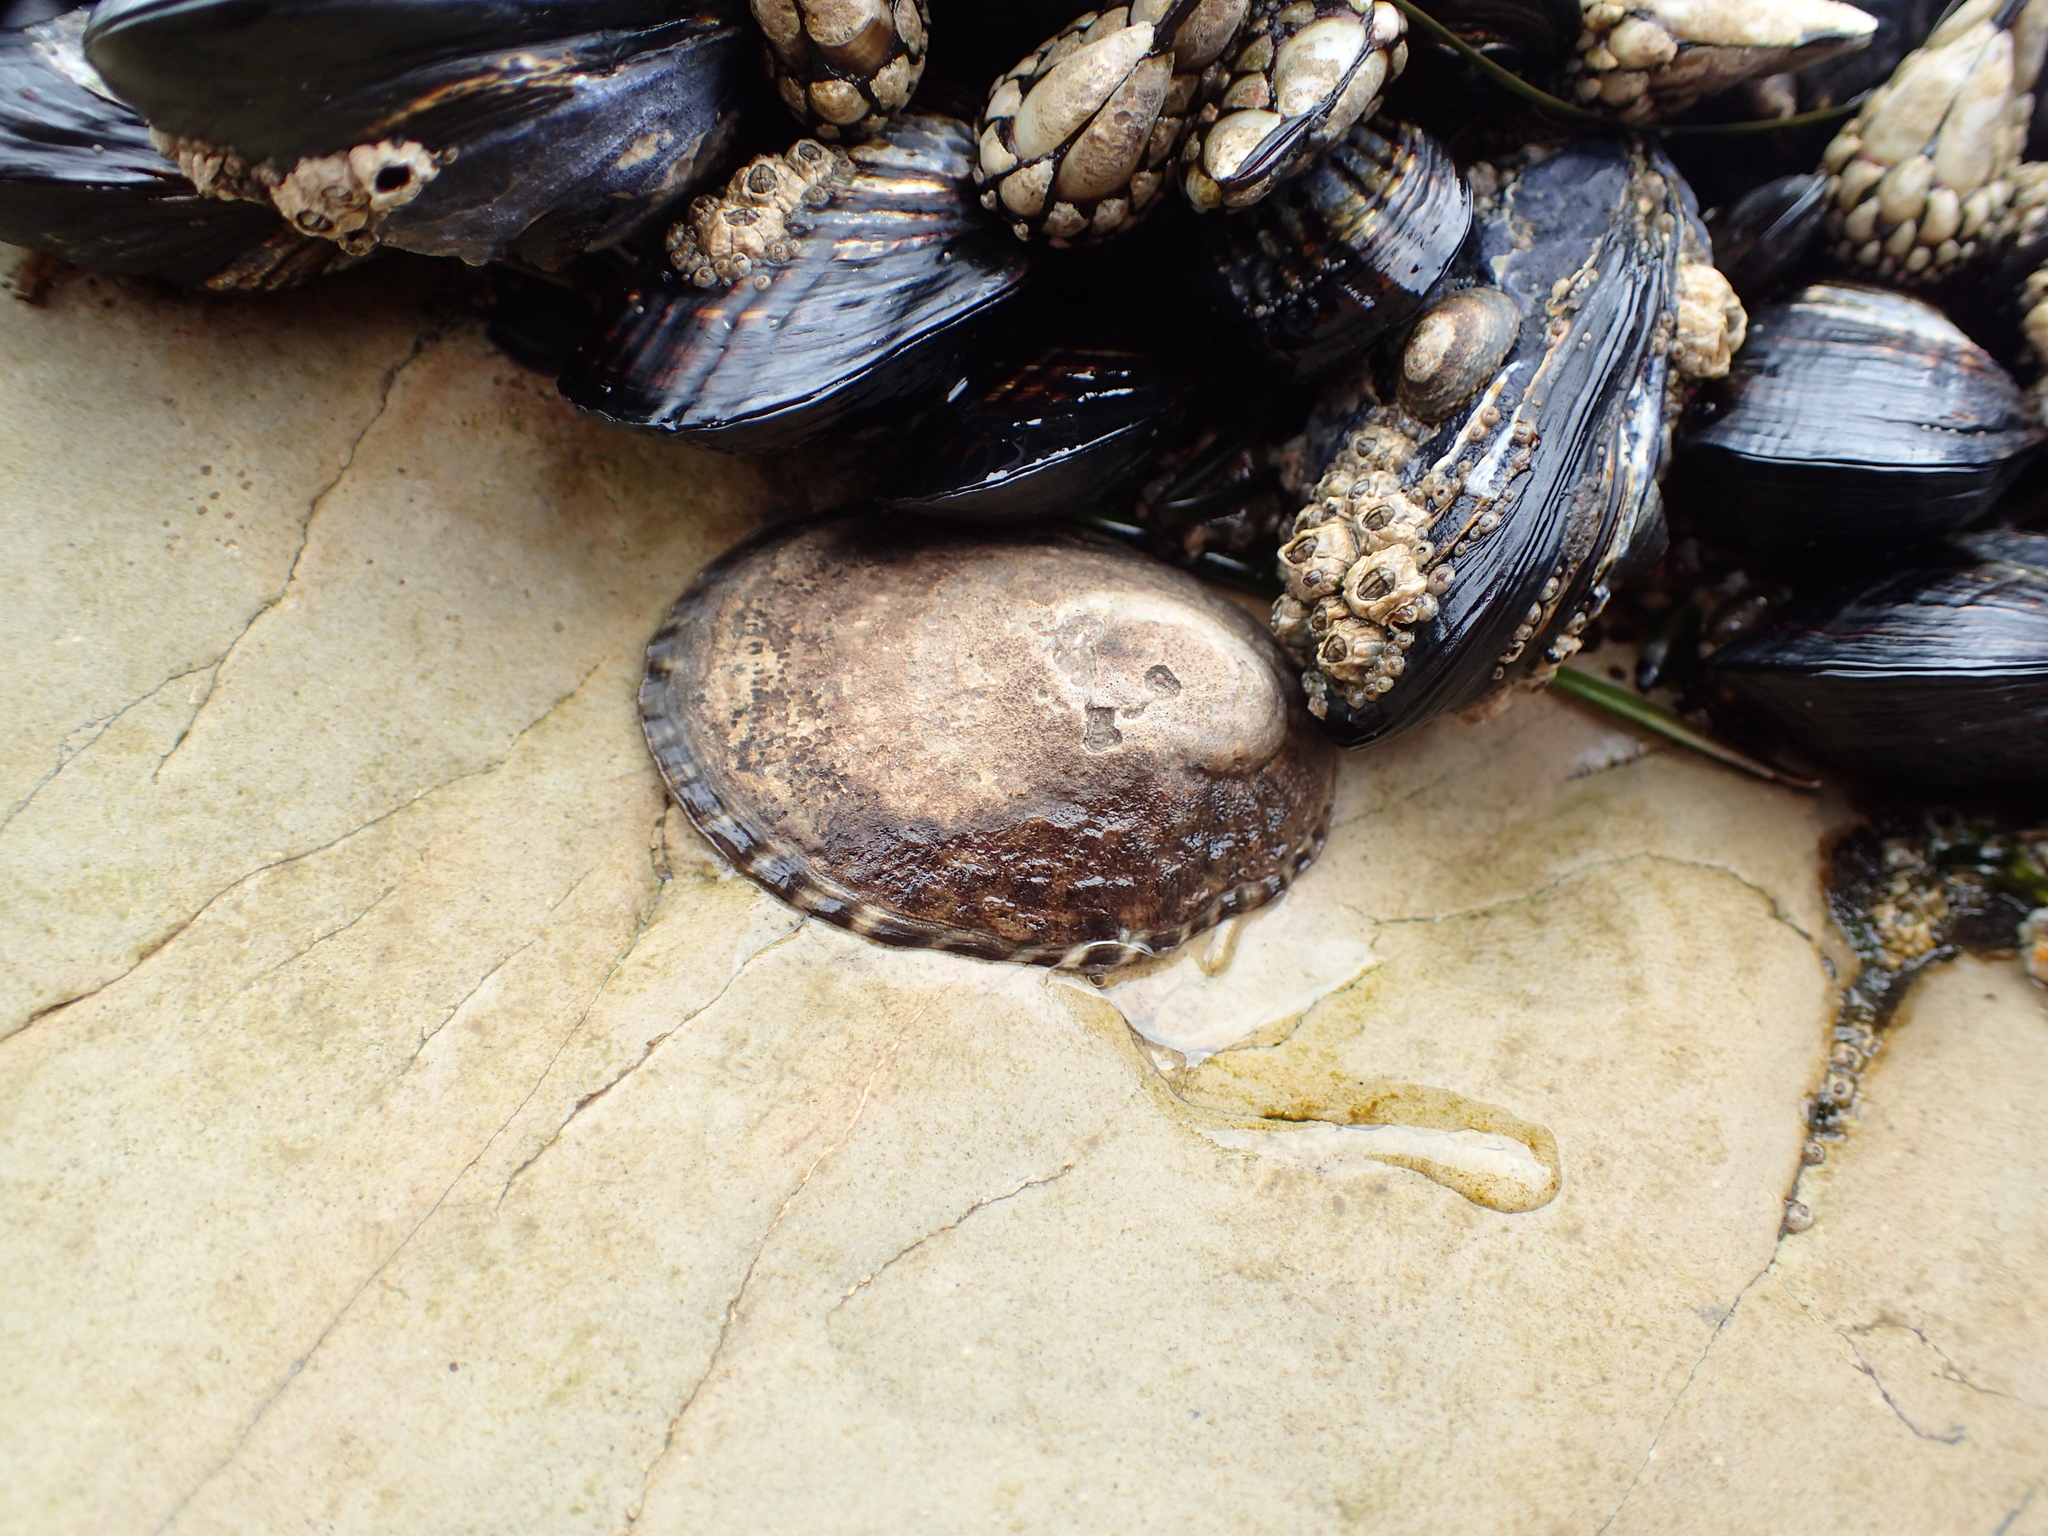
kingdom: Animalia
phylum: Mollusca
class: Gastropoda
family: Lottiidae
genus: Lottia
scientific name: Lottia gigantea
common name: Owl limpet
